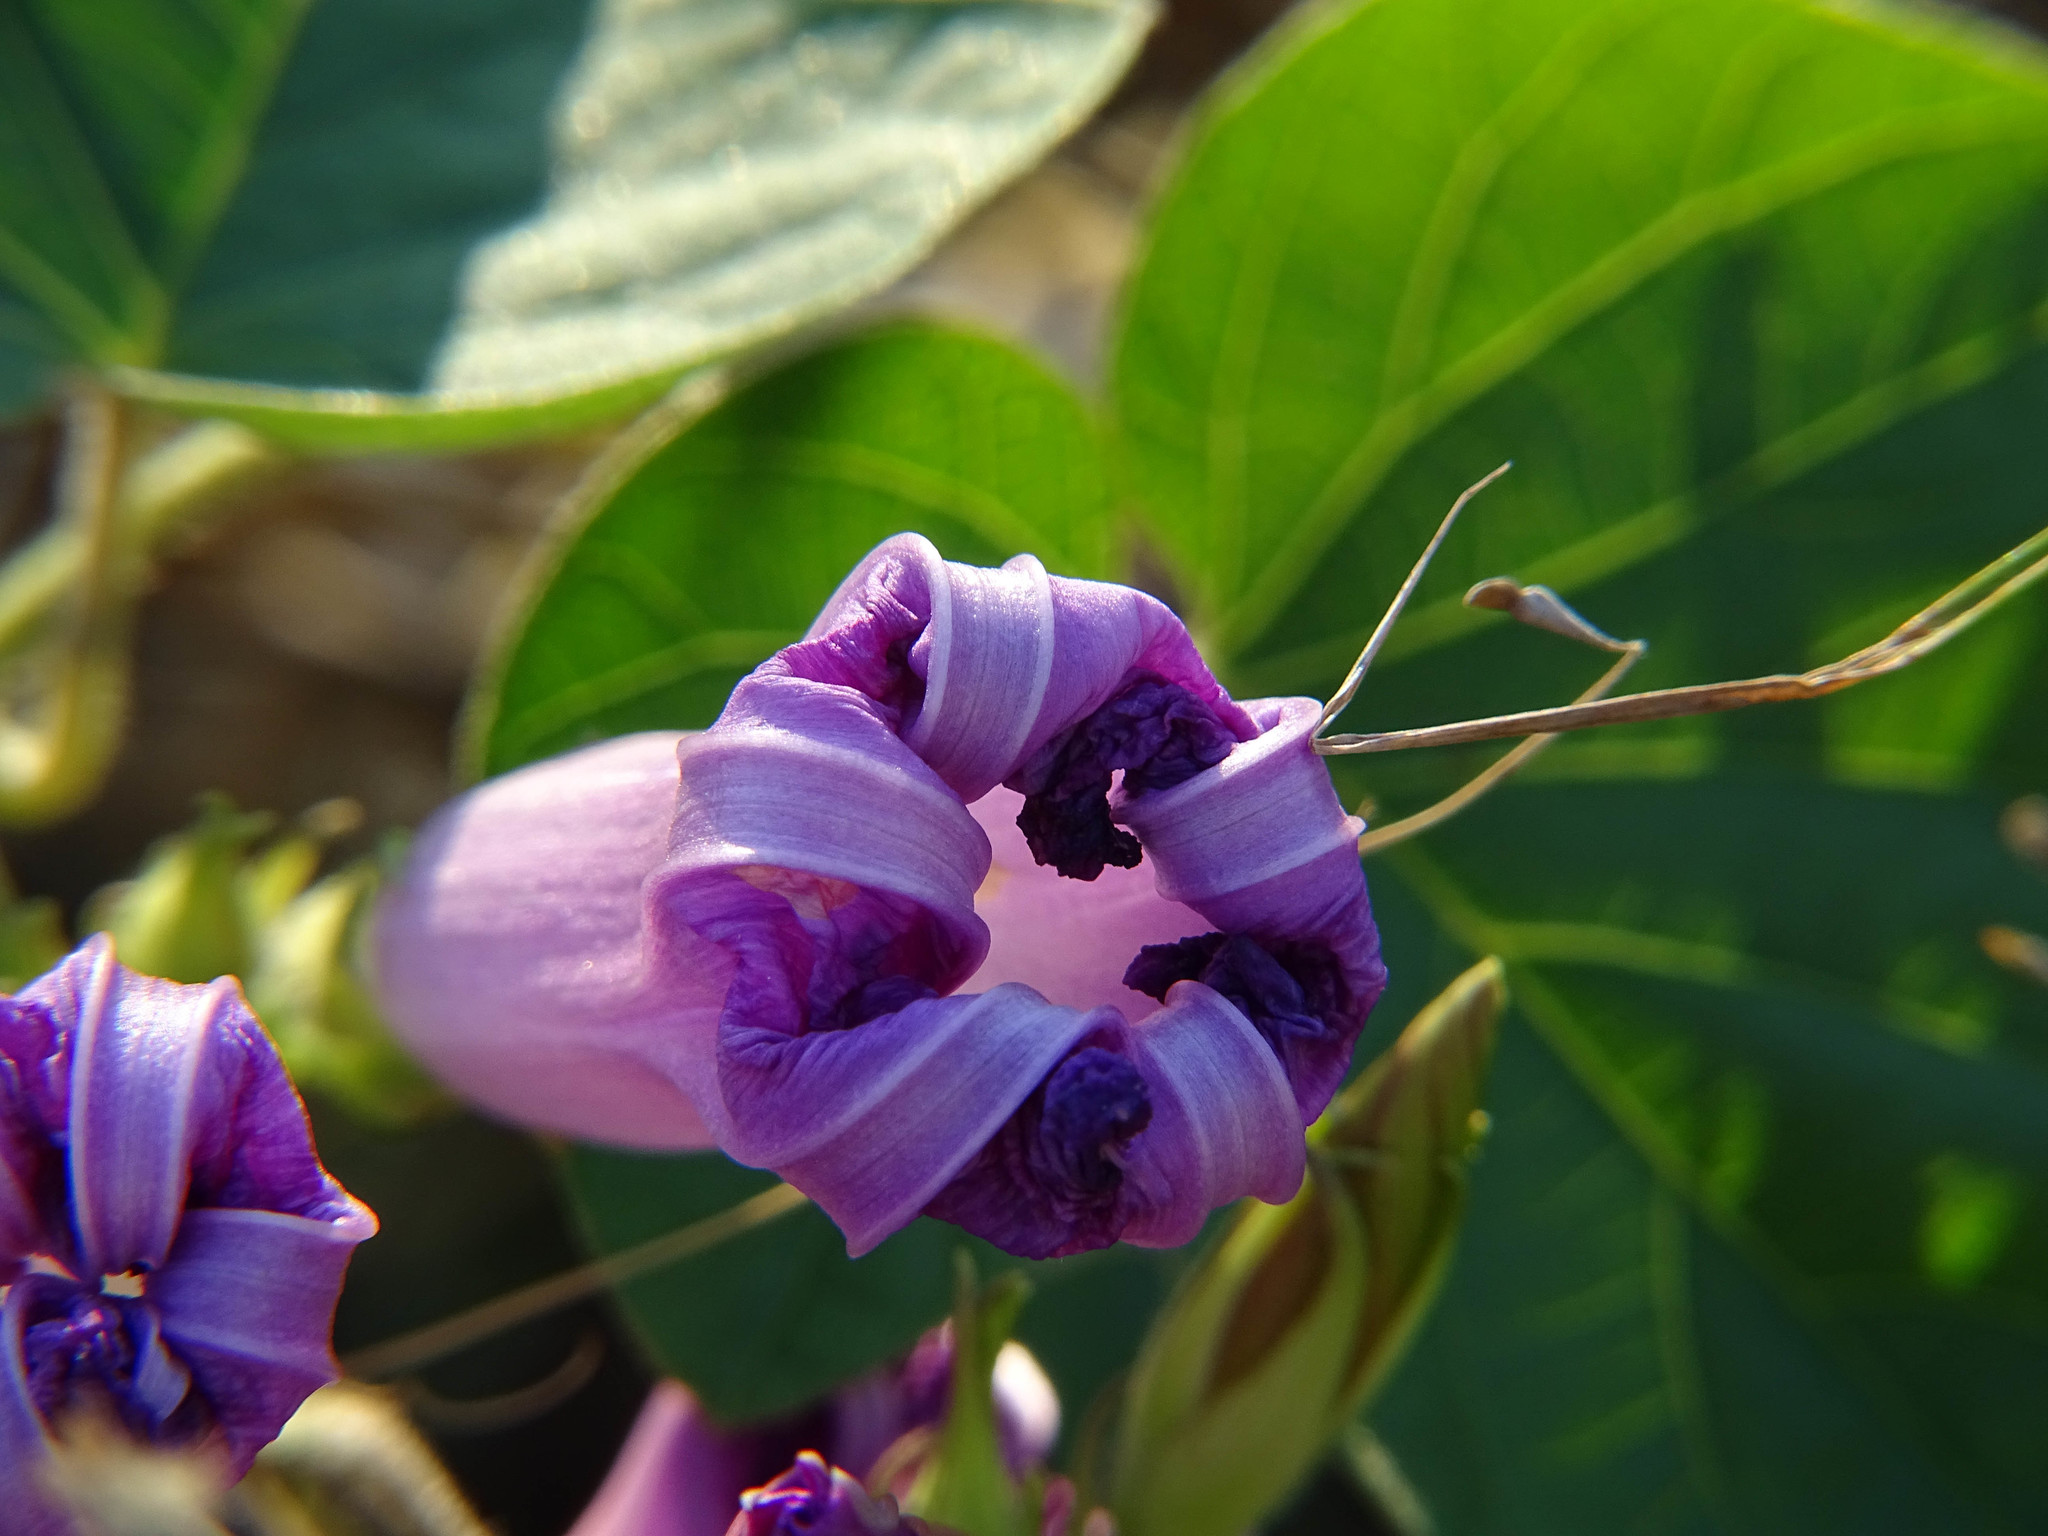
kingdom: Plantae
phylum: Tracheophyta
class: Magnoliopsida
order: Solanales
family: Convolvulaceae
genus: Ipomoea
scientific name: Ipomoea indica
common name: Blue dawnflower
